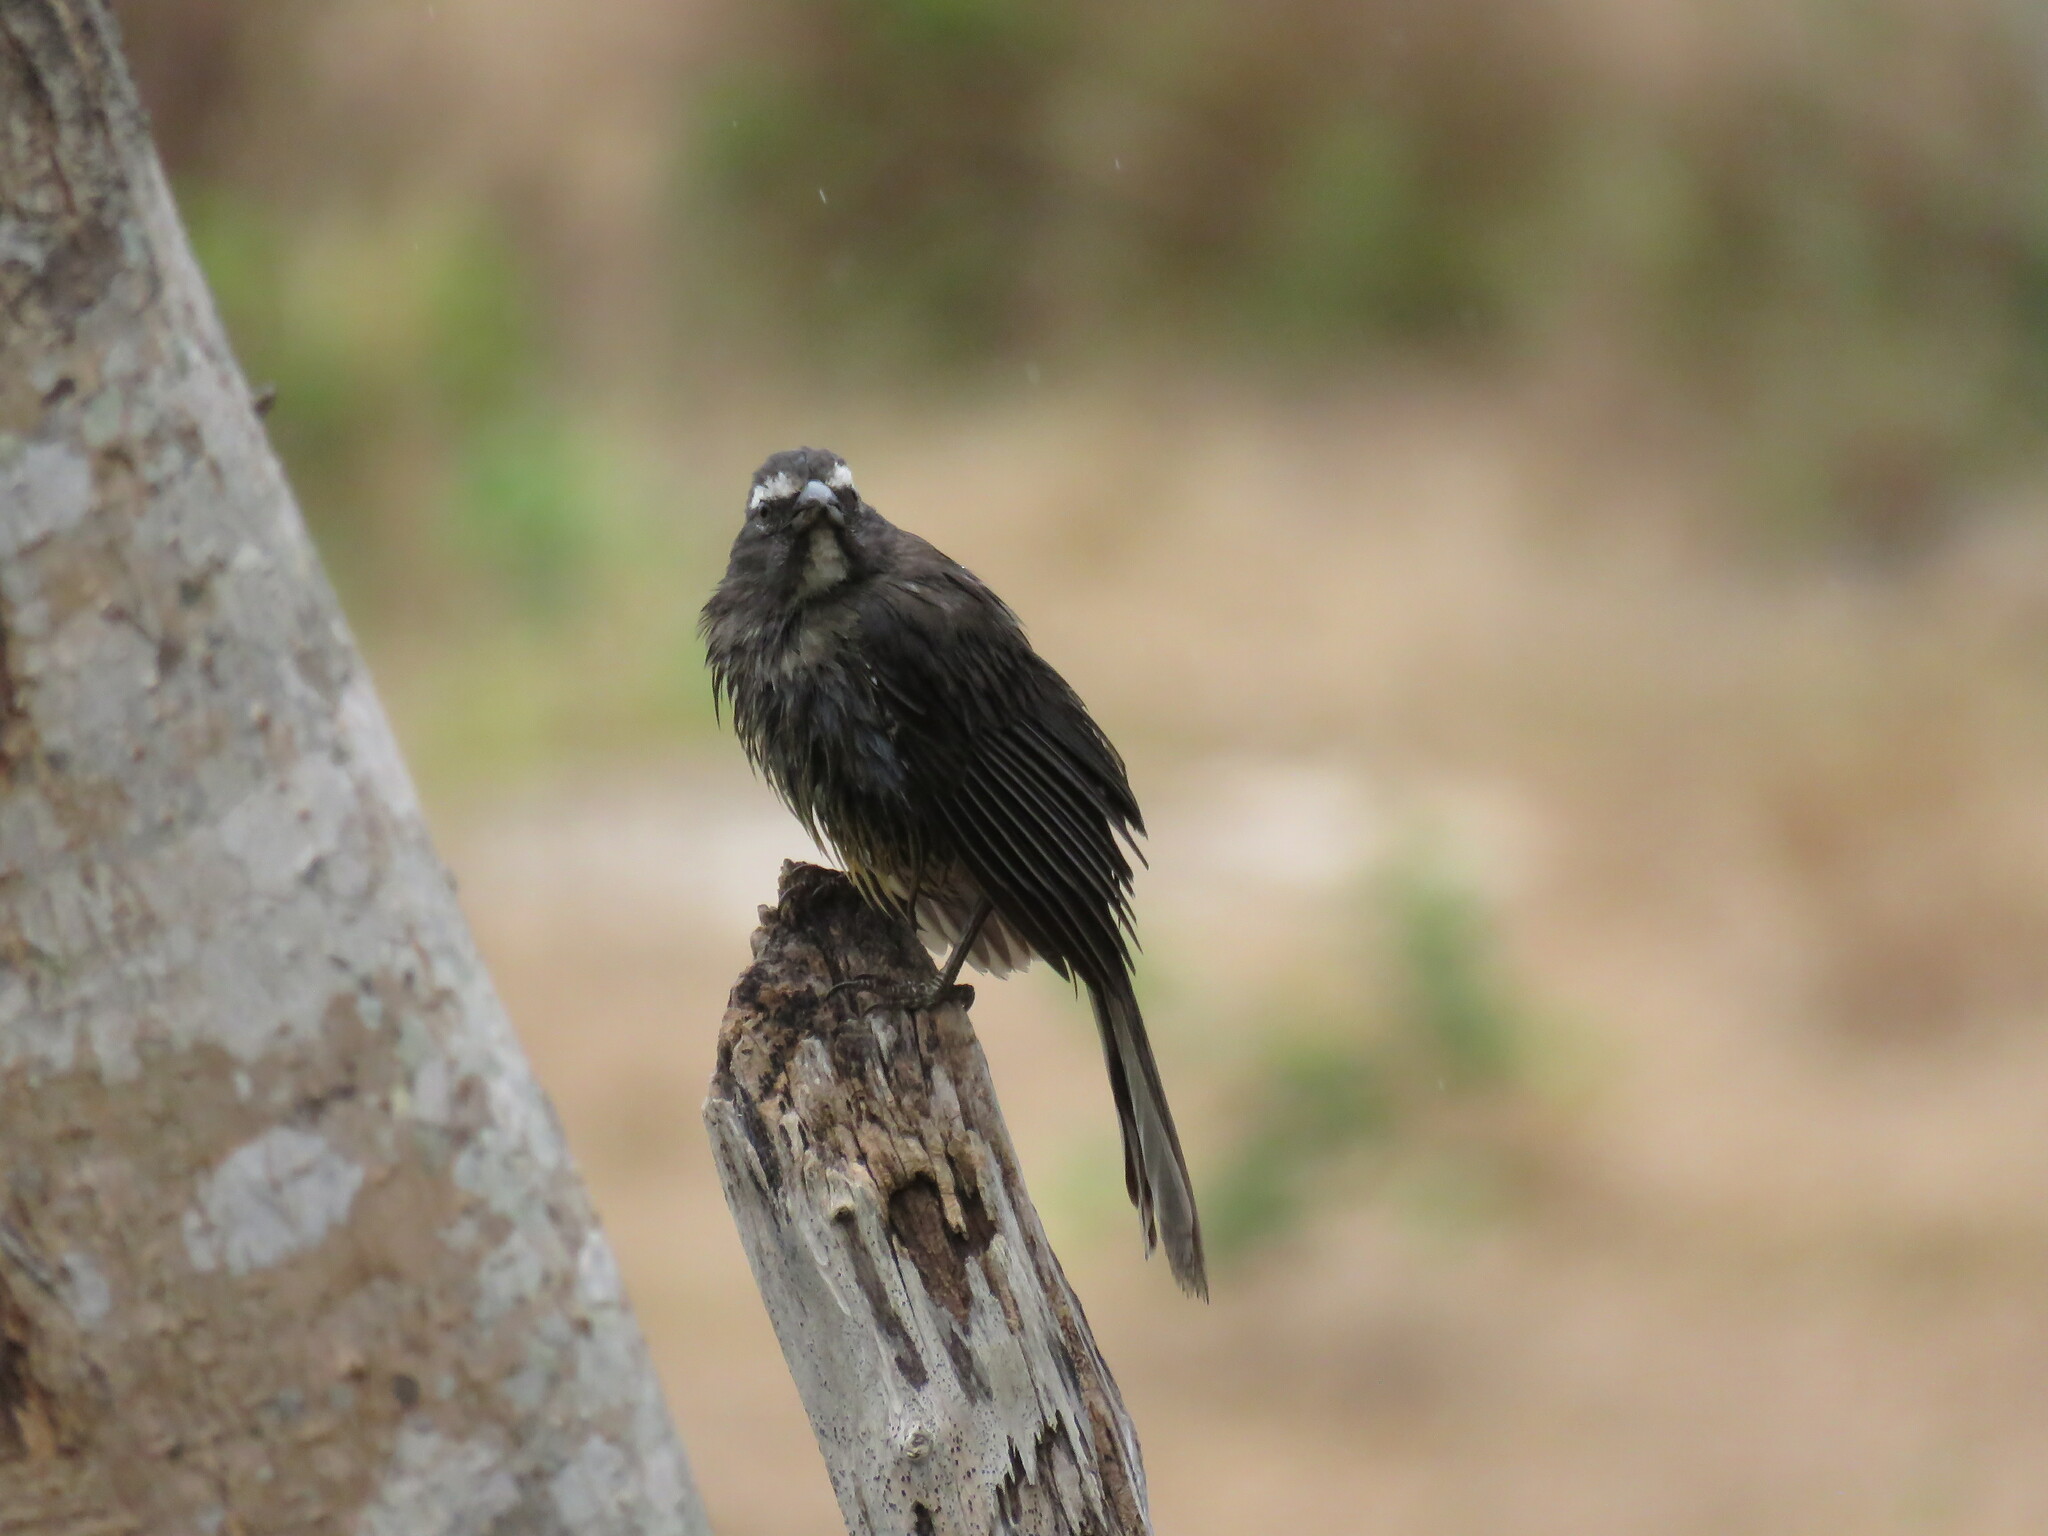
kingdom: Animalia
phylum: Chordata
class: Aves
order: Passeriformes
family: Thraupidae
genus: Saltator
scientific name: Saltator grandis
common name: Cinnamon-bellied saltator
